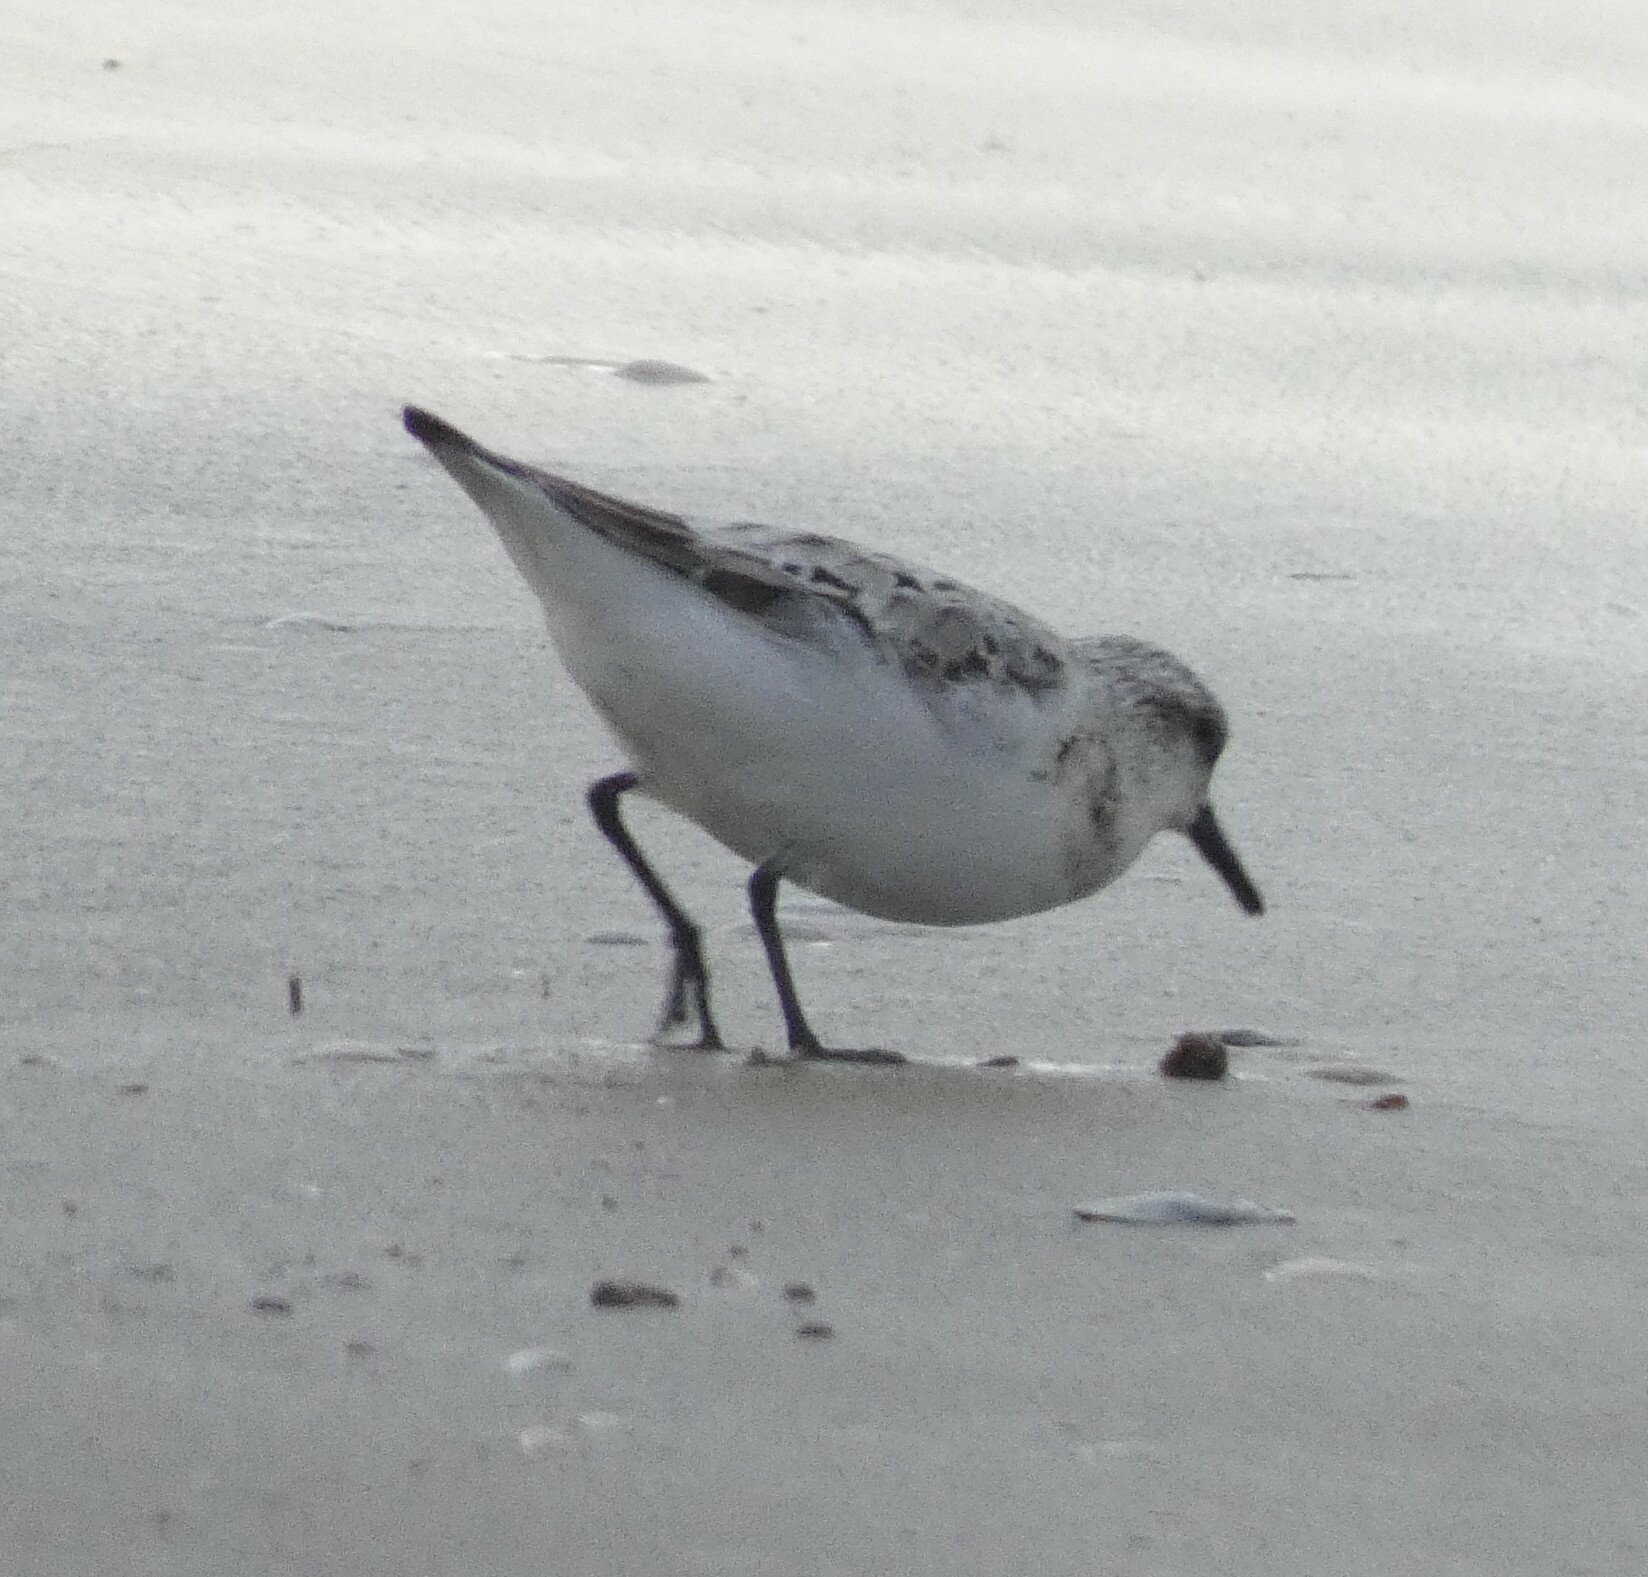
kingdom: Animalia
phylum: Chordata
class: Aves
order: Charadriiformes
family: Scolopacidae
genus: Calidris
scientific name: Calidris alba
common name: Sanderling
